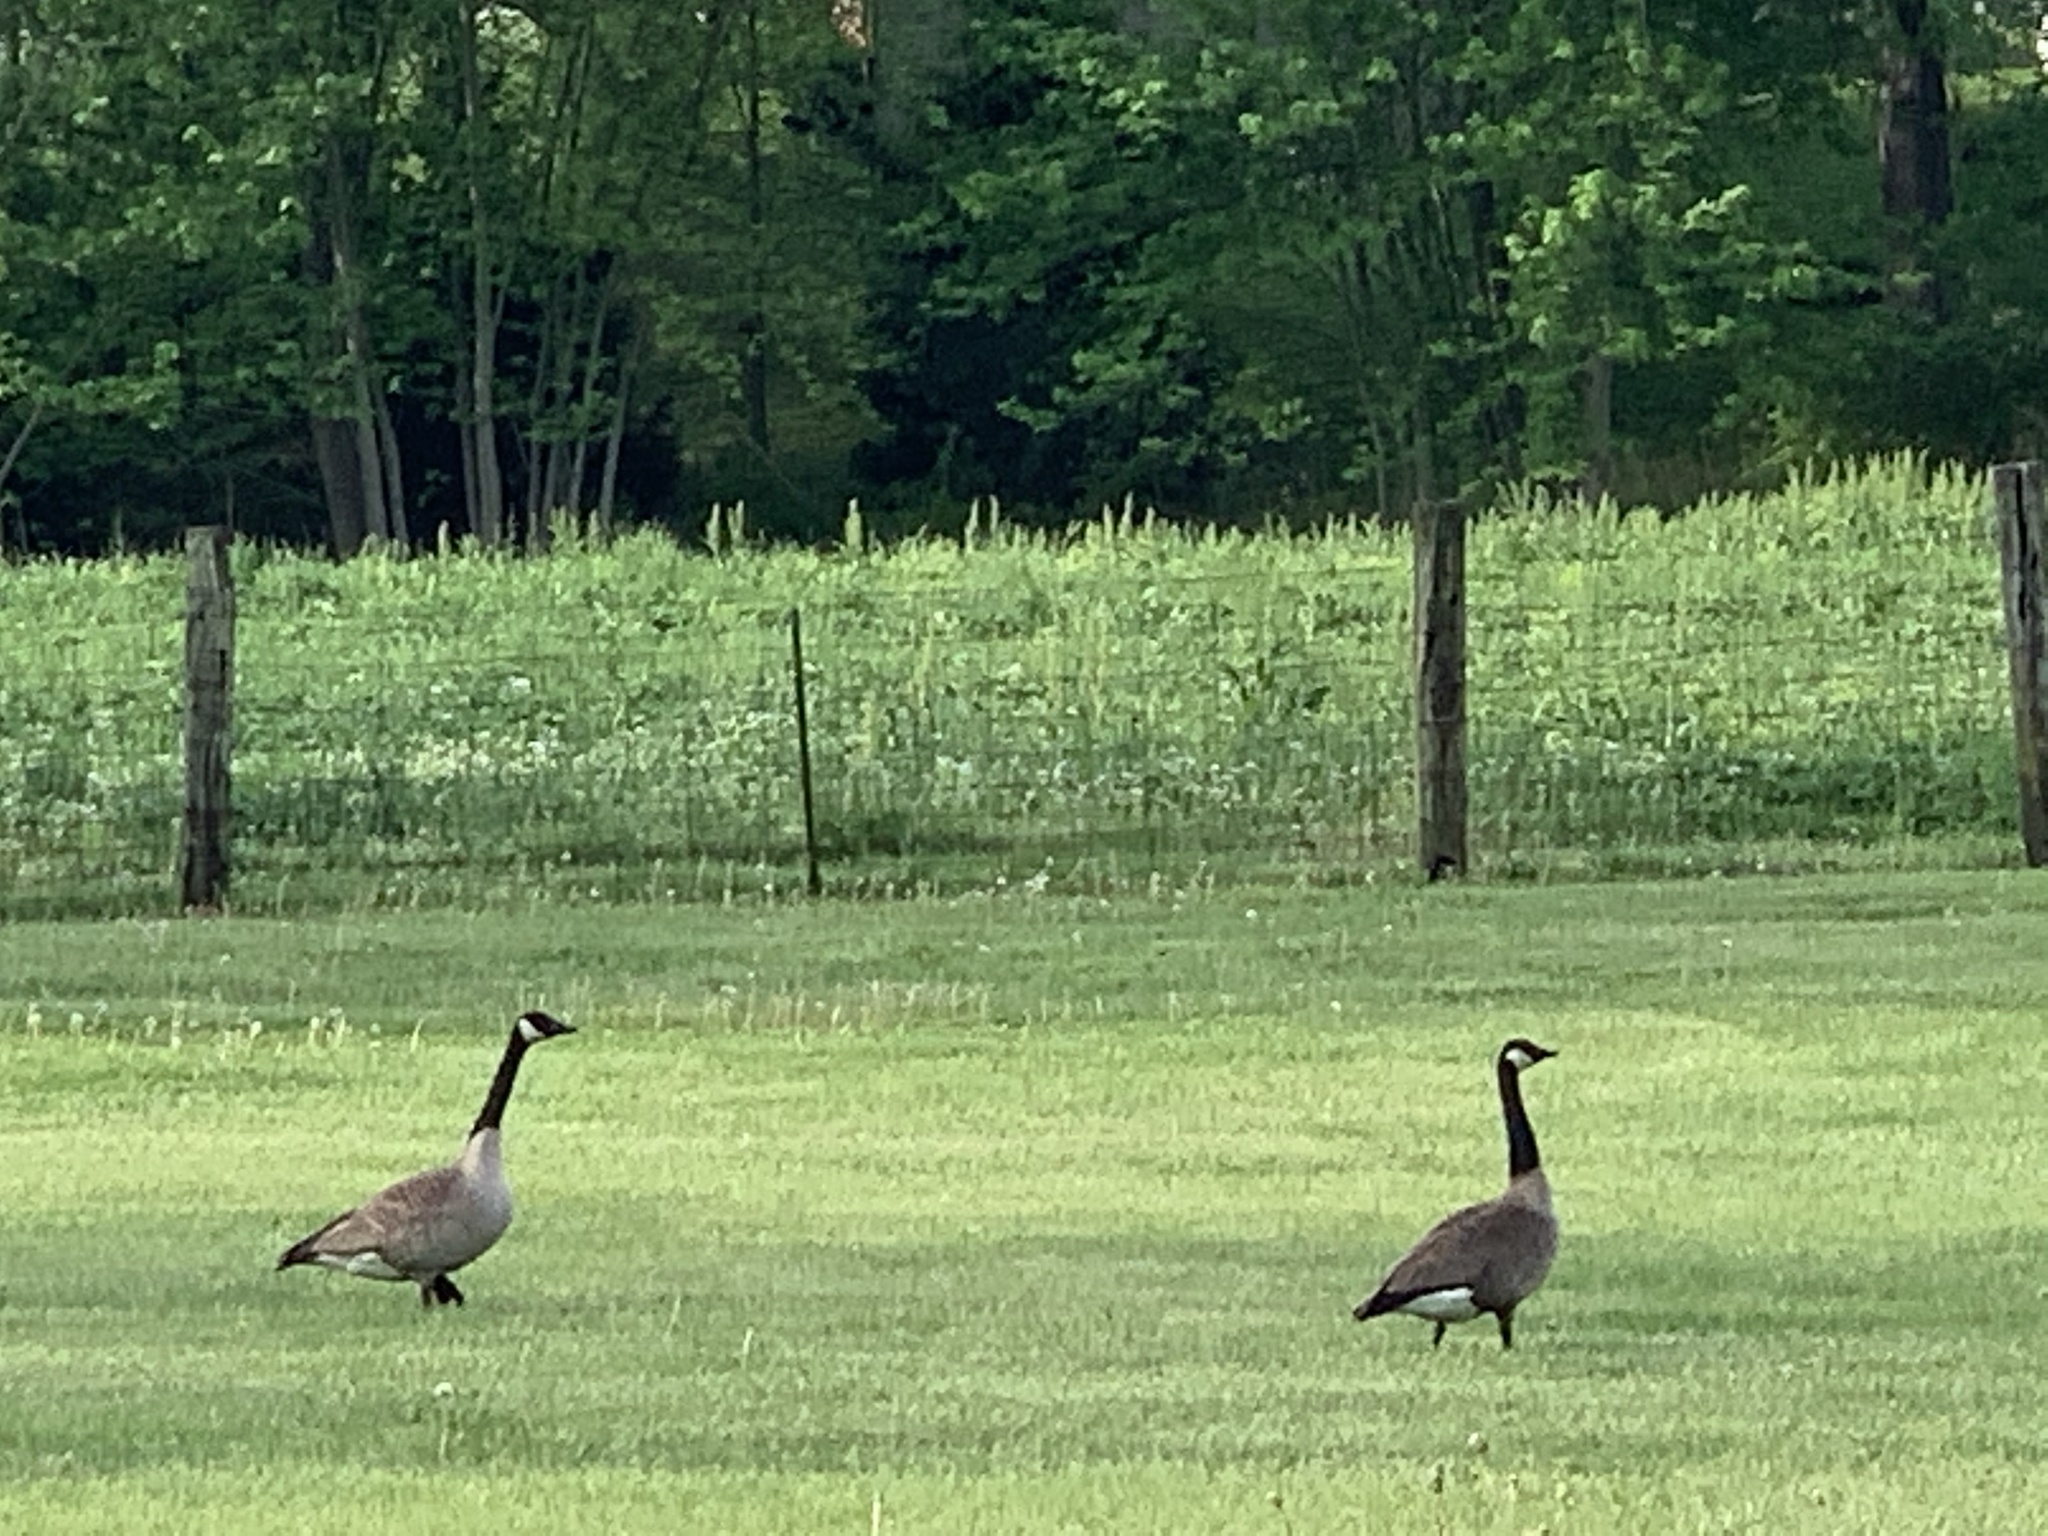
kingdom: Animalia
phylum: Chordata
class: Aves
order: Anseriformes
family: Anatidae
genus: Branta
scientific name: Branta canadensis
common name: Canada goose
